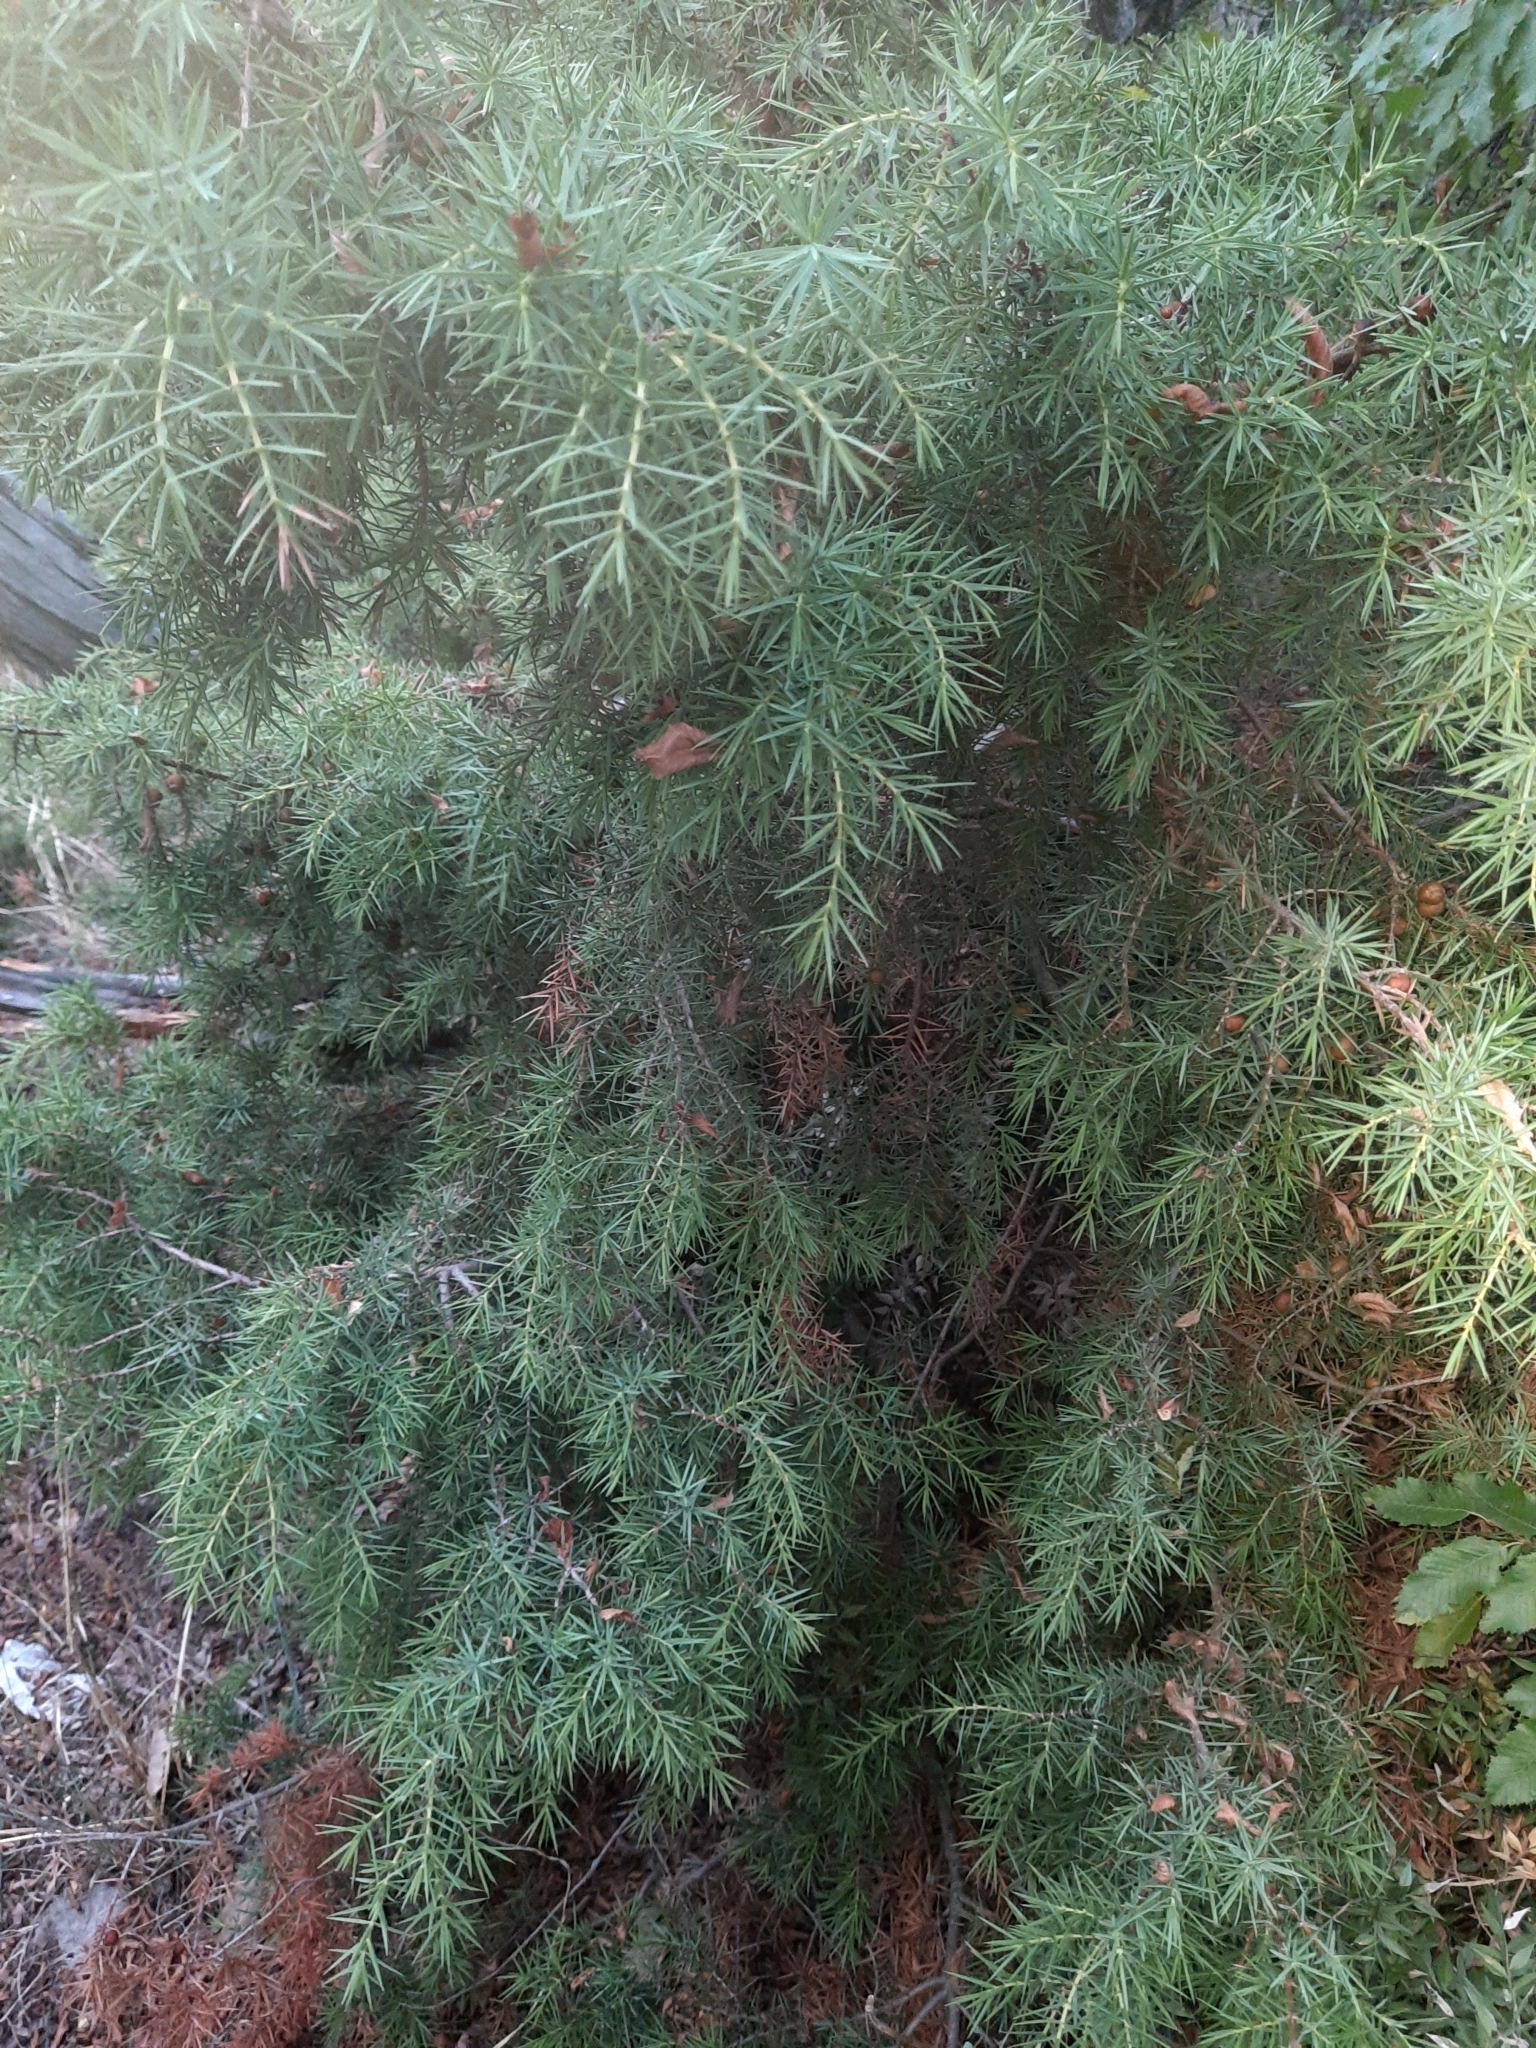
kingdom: Plantae
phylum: Tracheophyta
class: Pinopsida
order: Pinales
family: Cupressaceae
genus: Juniperus
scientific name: Juniperus oxycedrus
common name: Prickly juniper
